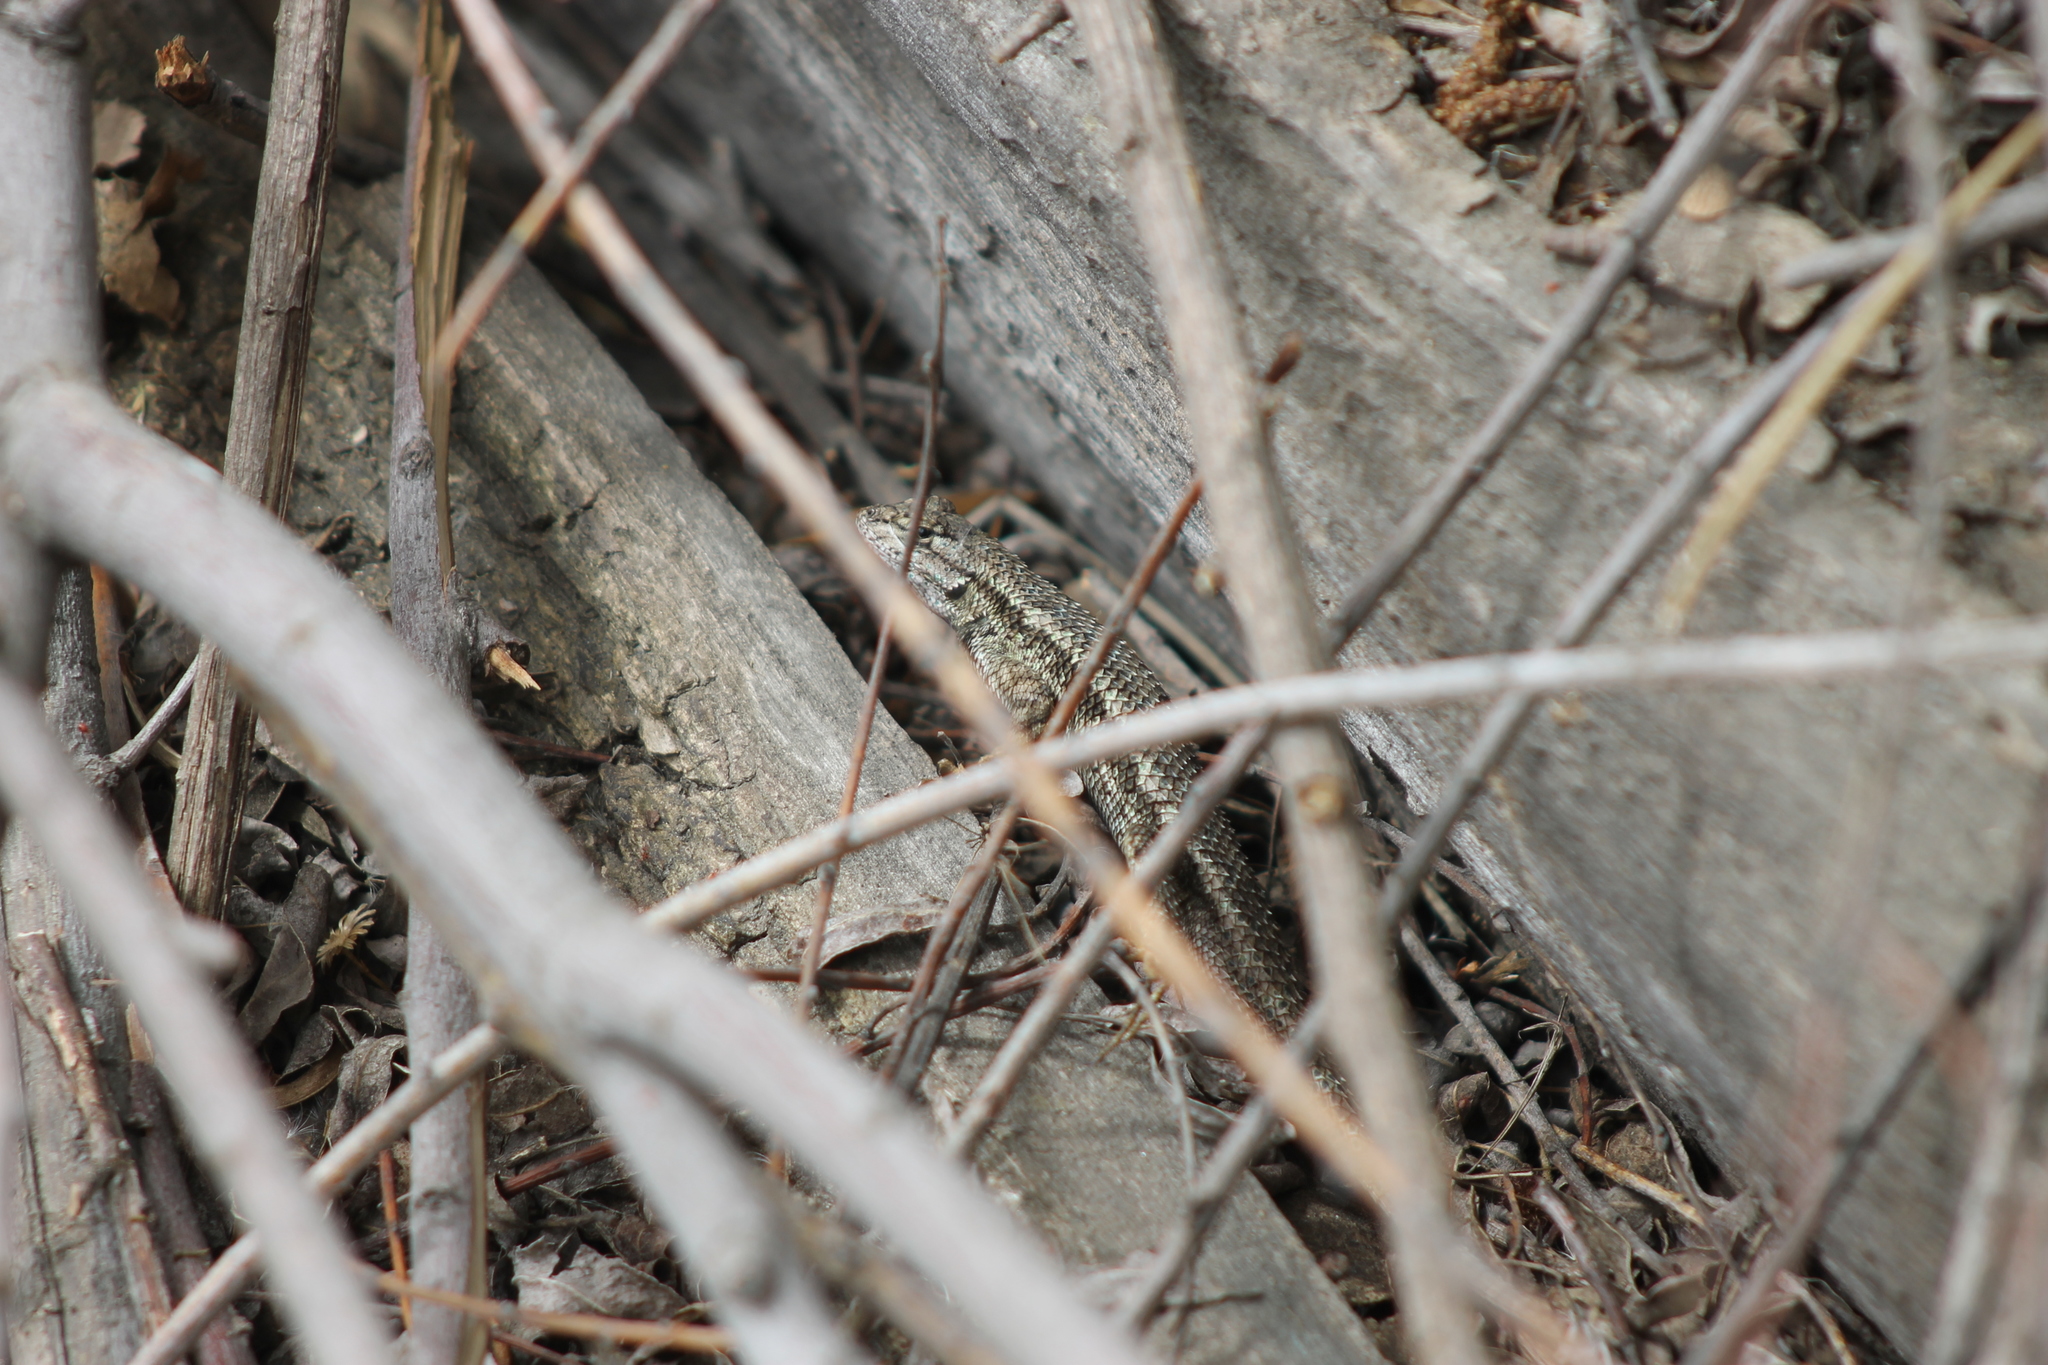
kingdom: Animalia
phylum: Chordata
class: Squamata
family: Phrynosomatidae
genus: Sceloporus
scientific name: Sceloporus occidentalis
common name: Western fence lizard
